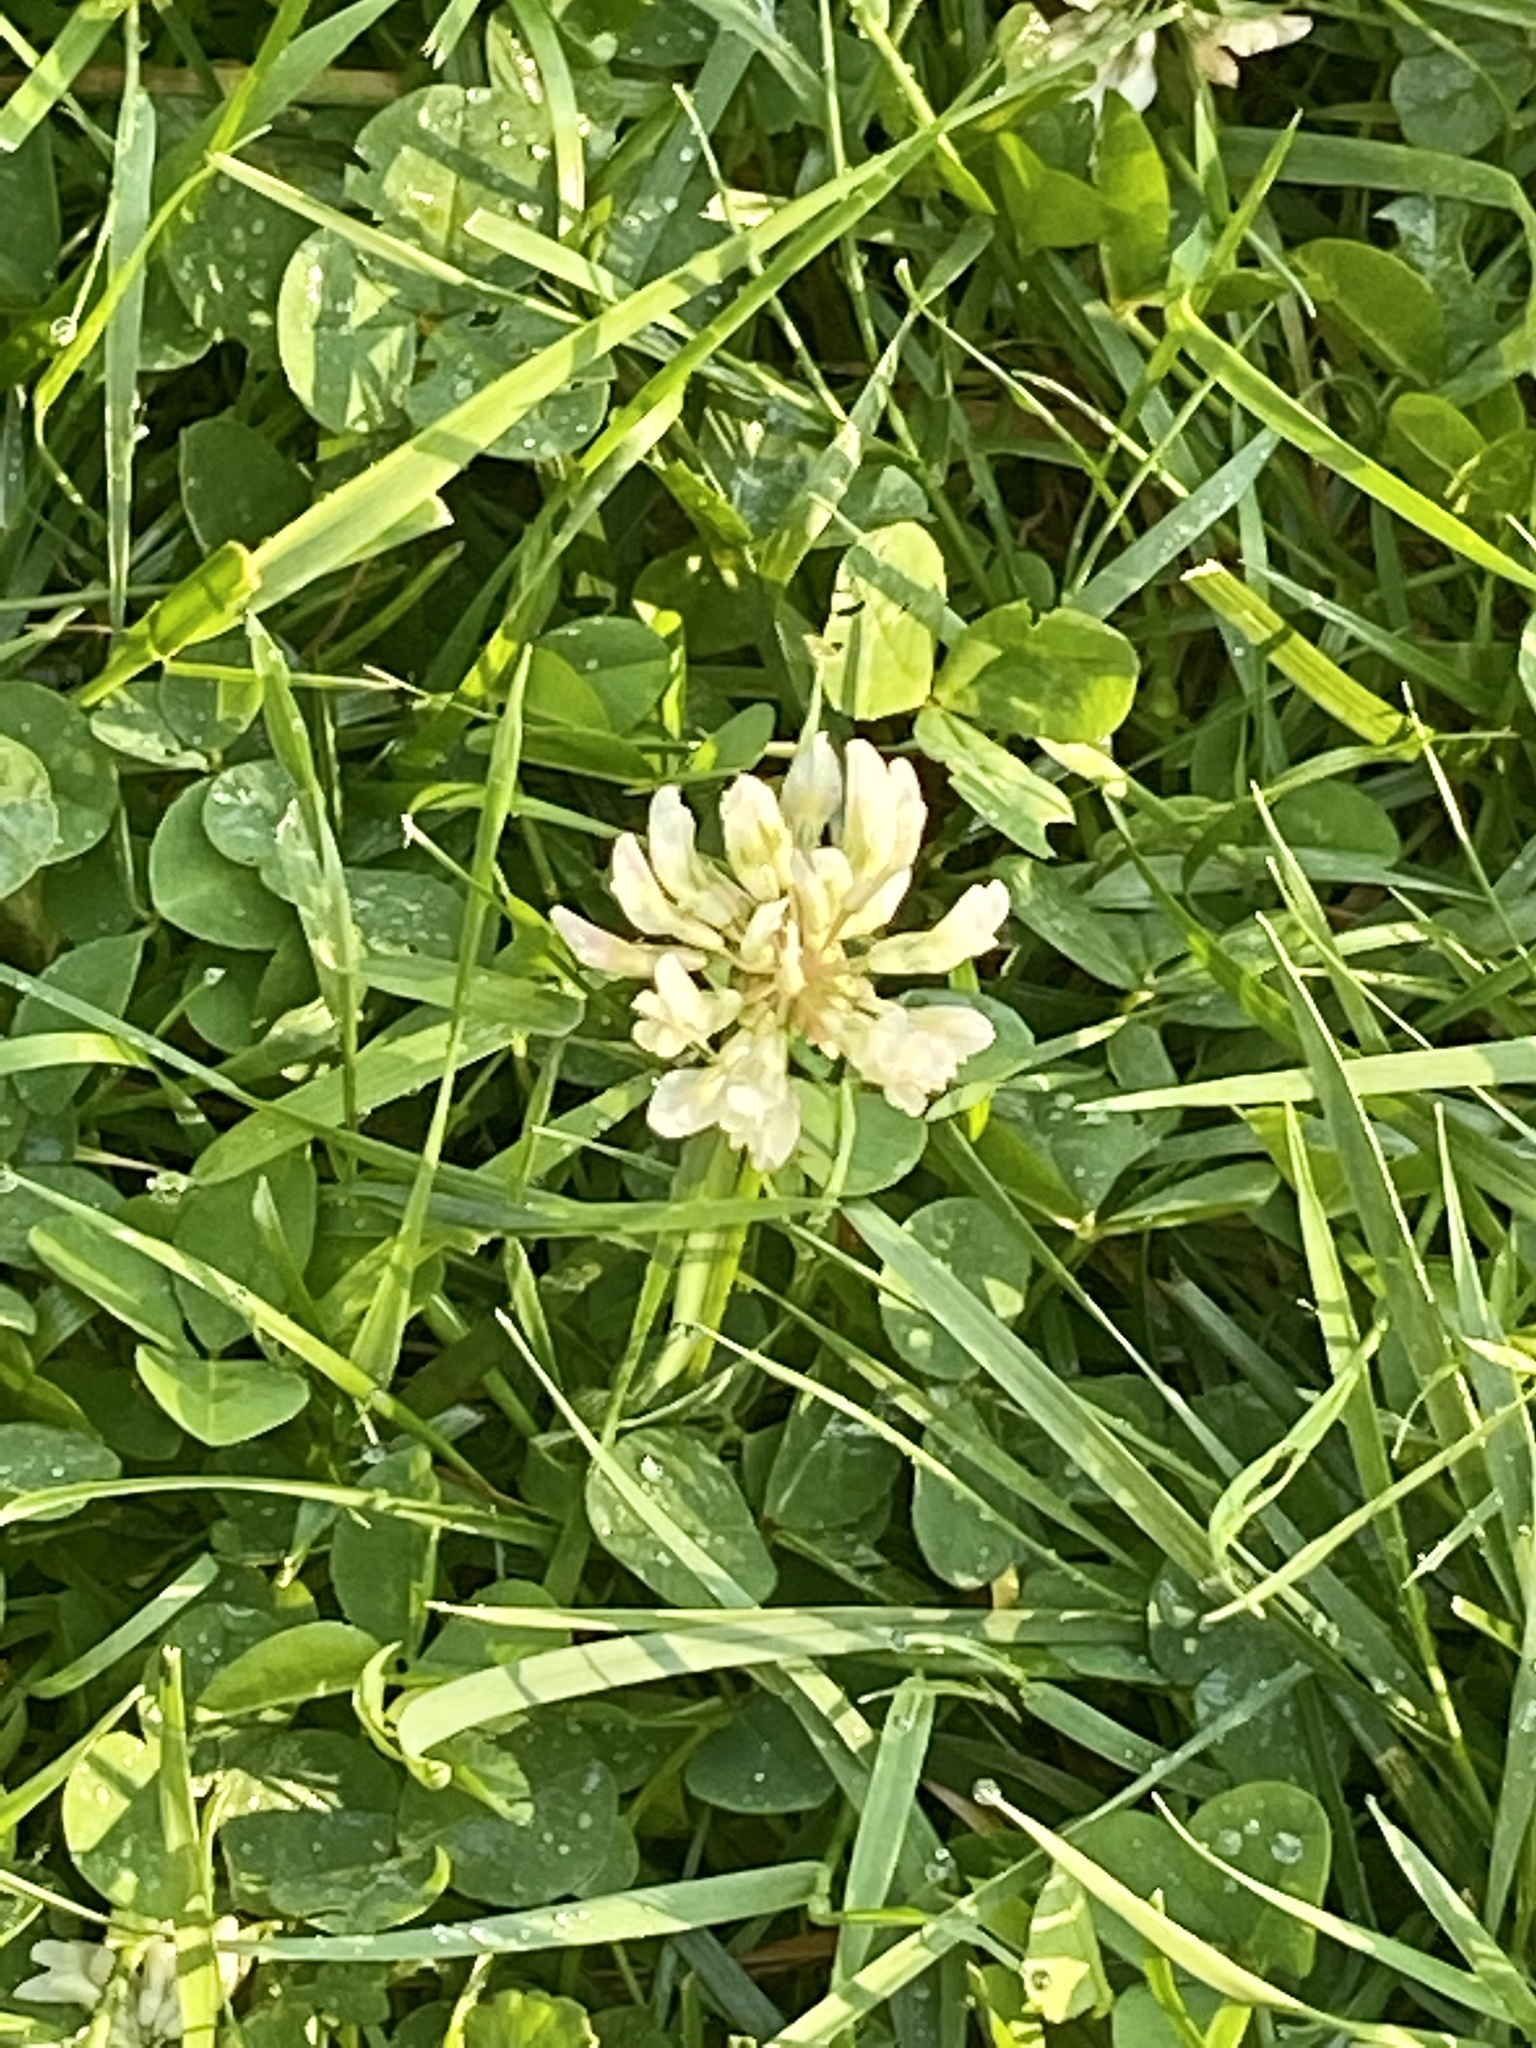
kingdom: Plantae
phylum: Tracheophyta
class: Magnoliopsida
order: Fabales
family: Fabaceae
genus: Trifolium
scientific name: Trifolium repens
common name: White clover
